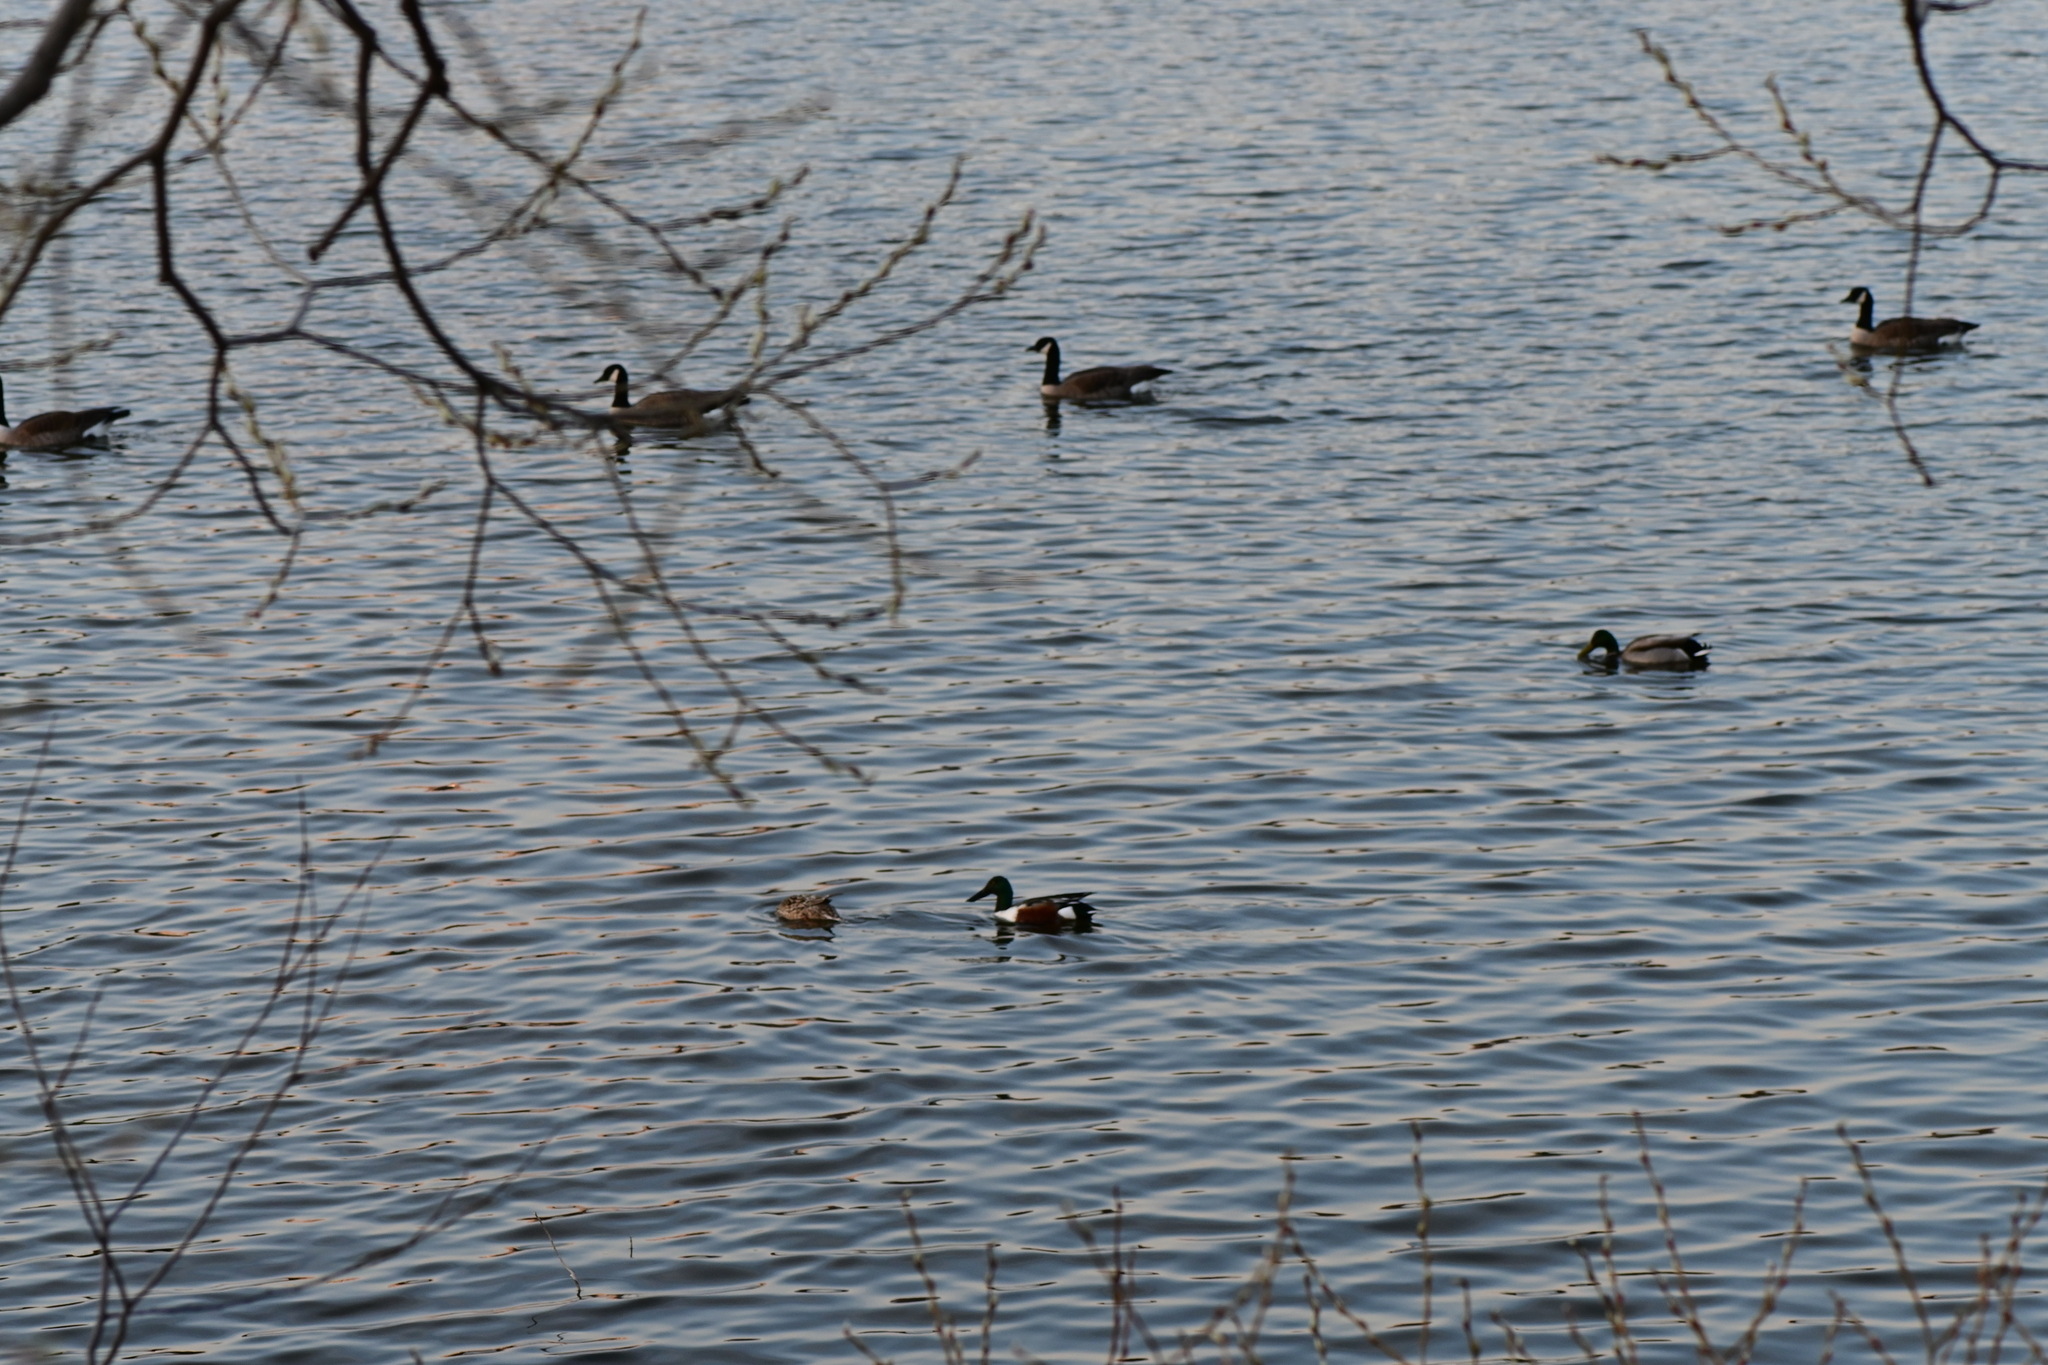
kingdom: Animalia
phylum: Chordata
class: Aves
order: Anseriformes
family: Anatidae
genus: Spatula
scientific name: Spatula clypeata
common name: Northern shoveler
